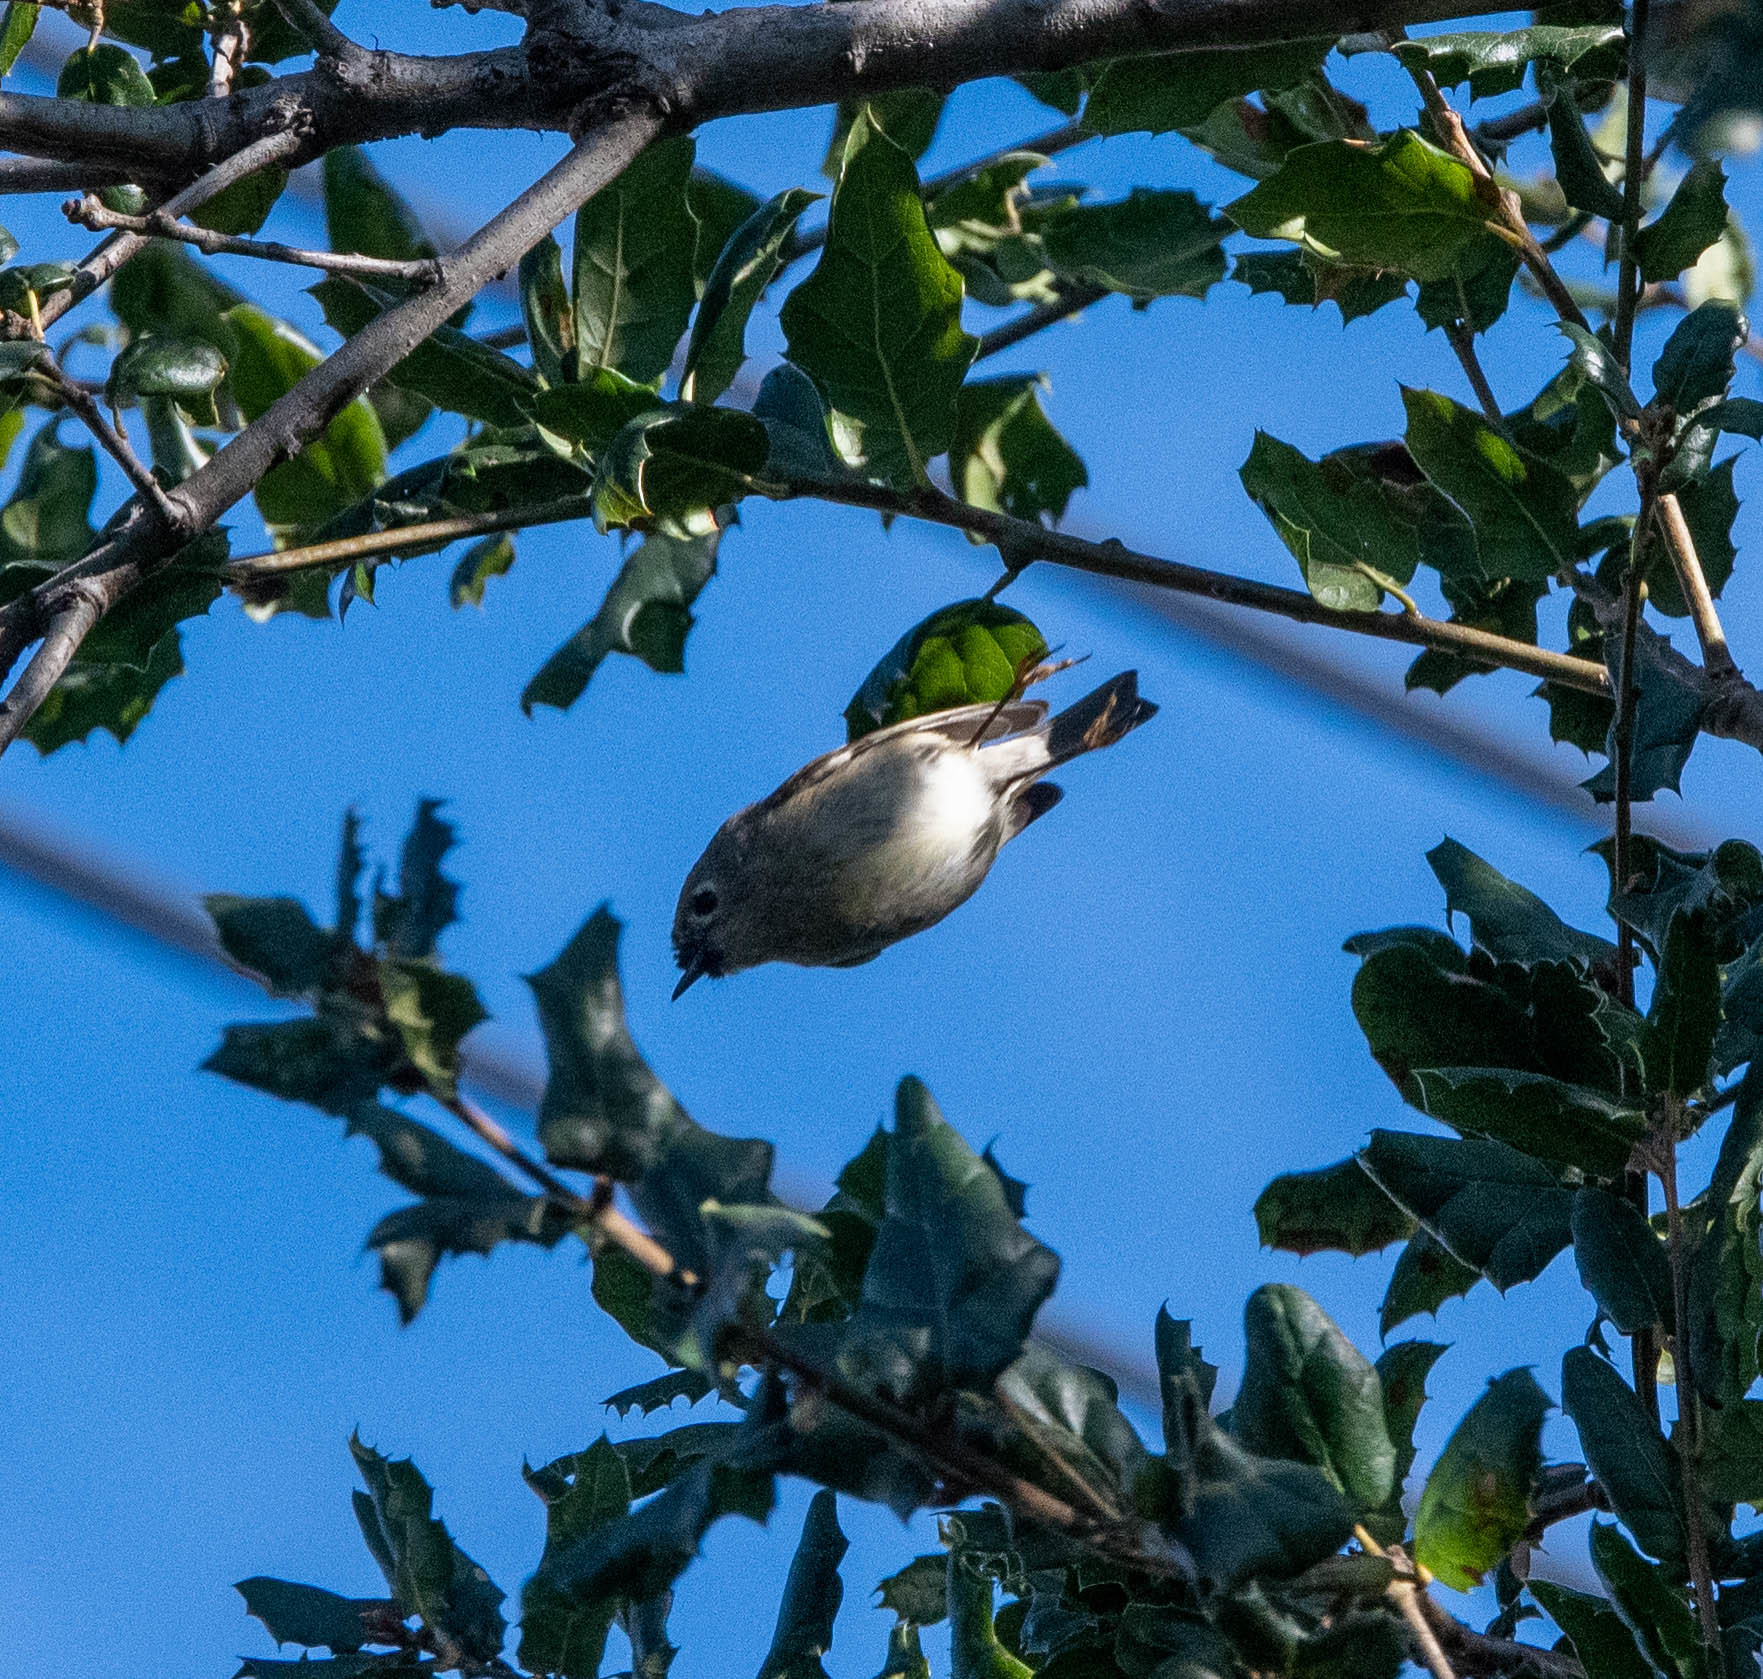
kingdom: Animalia
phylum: Chordata
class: Aves
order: Passeriformes
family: Regulidae
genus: Regulus
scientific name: Regulus calendula
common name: Ruby-crowned kinglet
